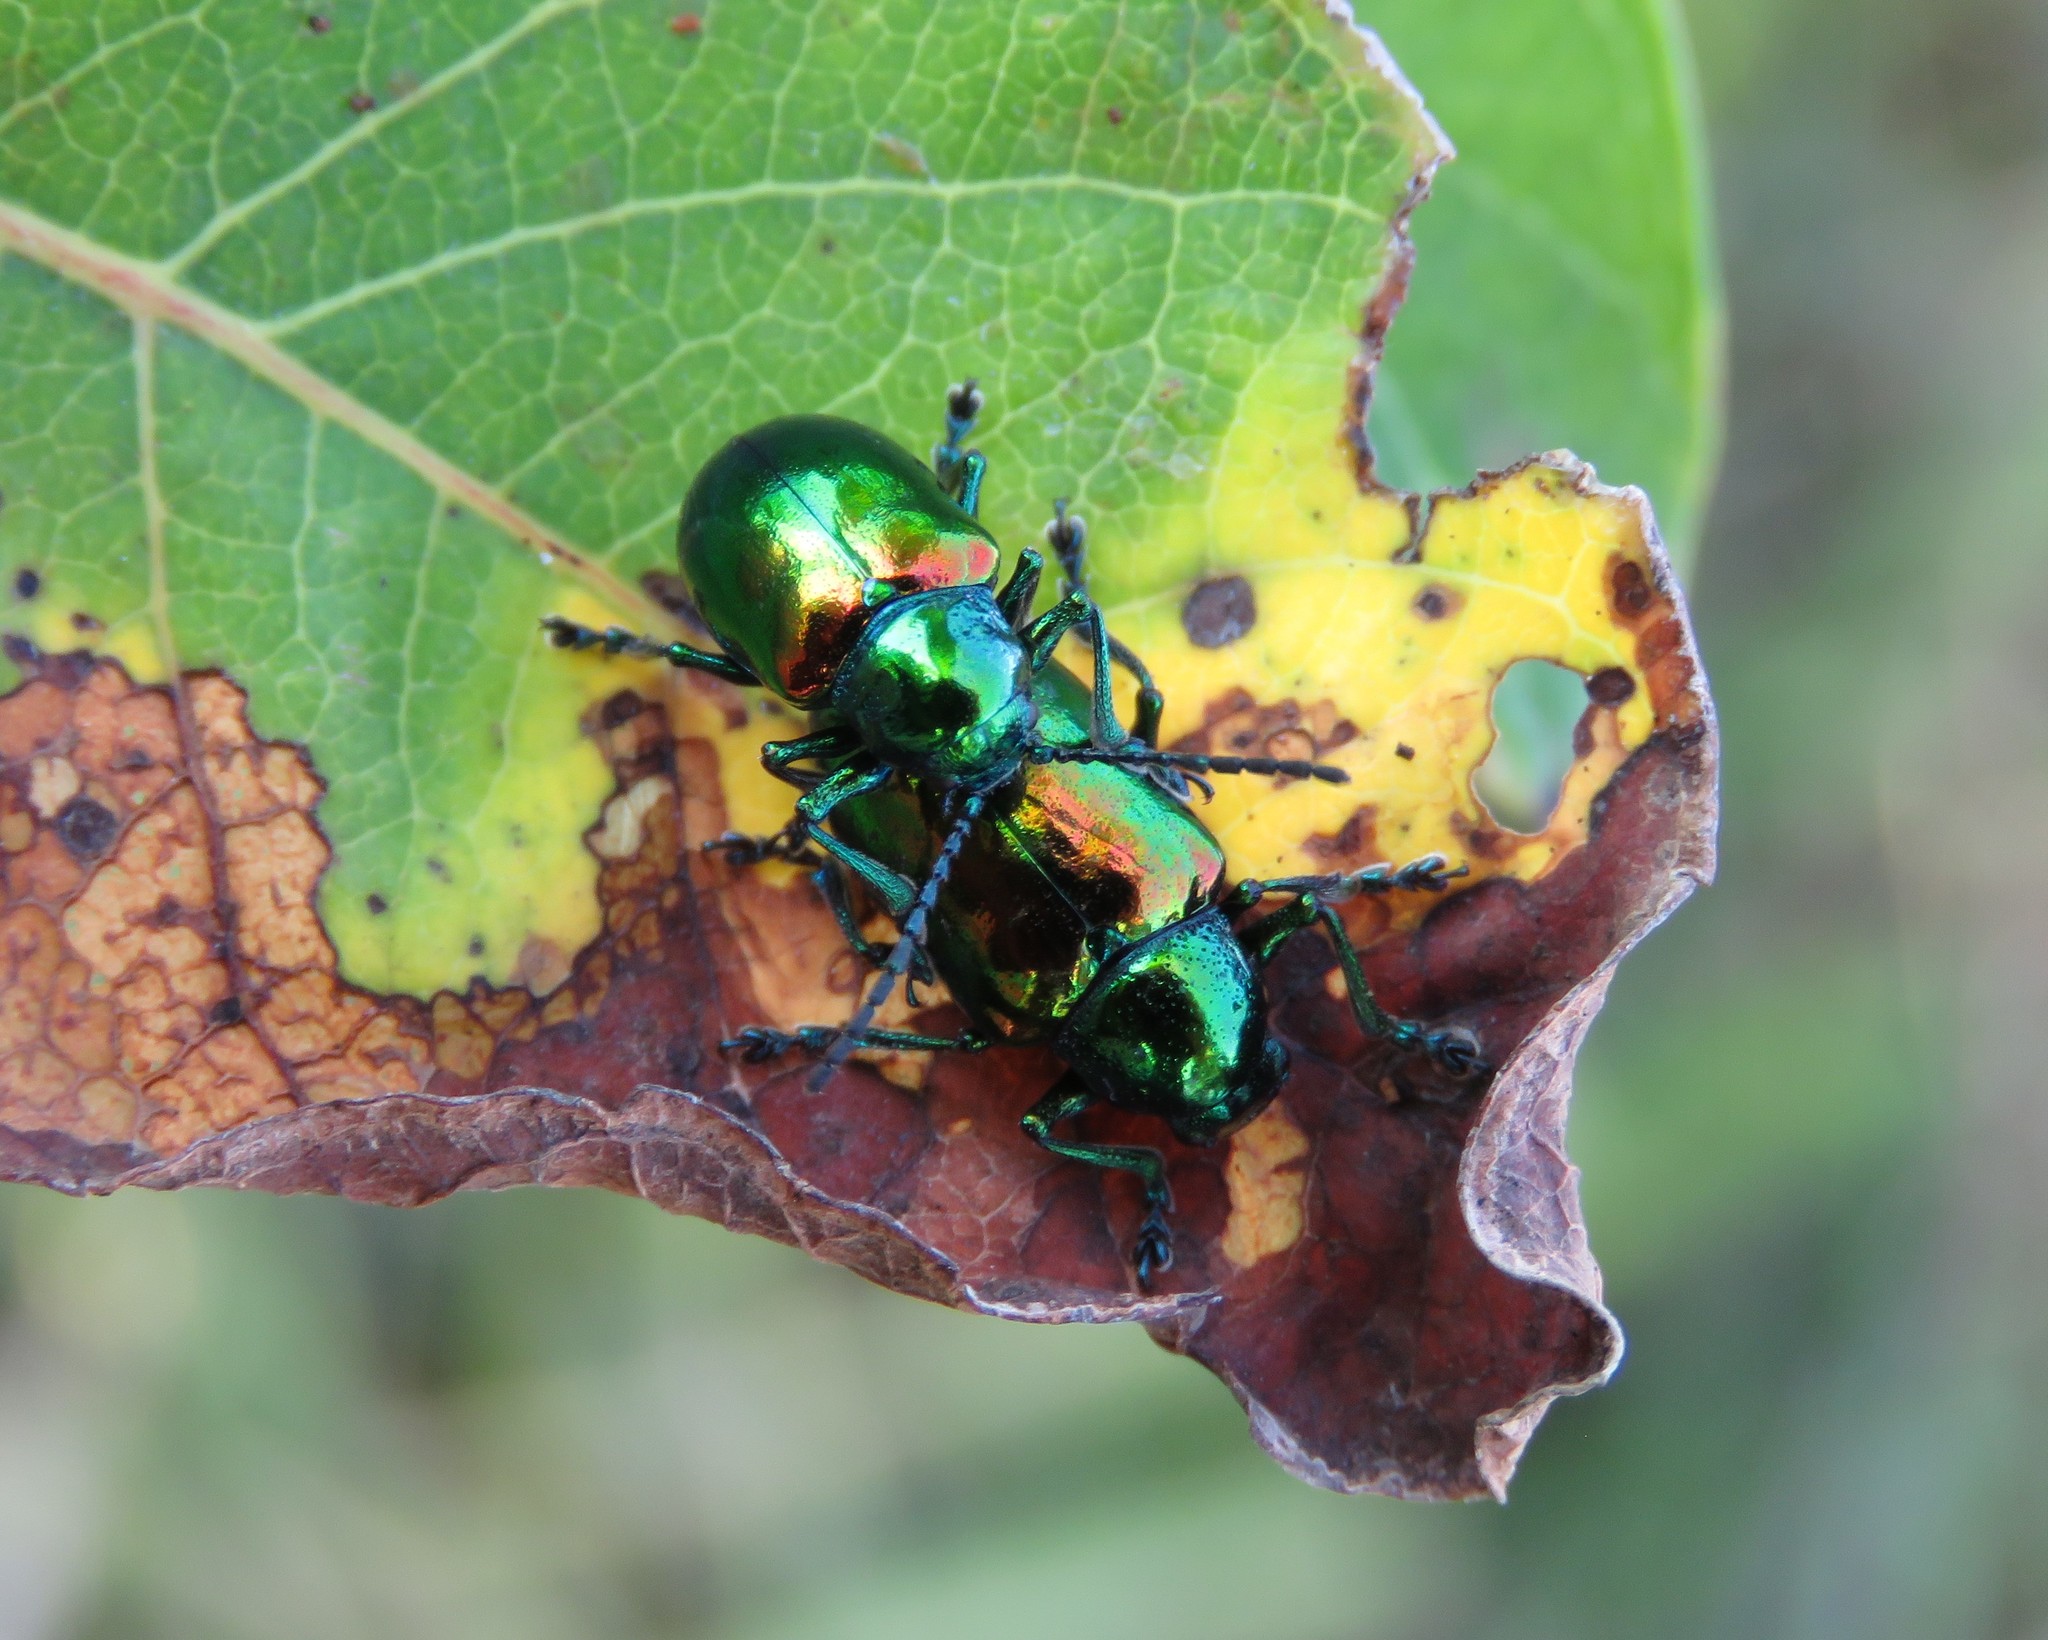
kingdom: Animalia
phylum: Arthropoda
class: Insecta
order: Coleoptera
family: Chrysomelidae
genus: Chrysochus
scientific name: Chrysochus auratus
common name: Dogbane leaf beetle
